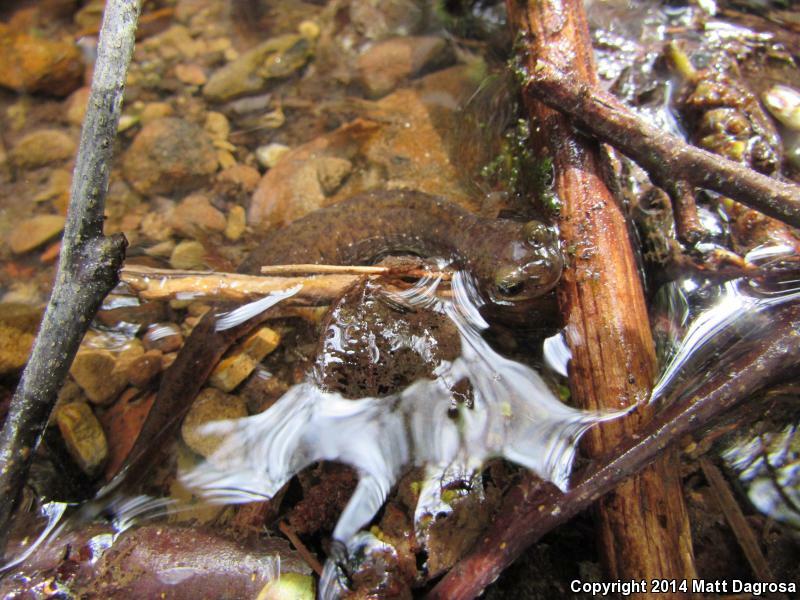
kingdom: Animalia
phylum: Chordata
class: Amphibia
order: Caudata
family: Rhyacotritonidae
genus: Rhyacotriton
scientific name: Rhyacotriton variegatus
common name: Southern torrent salamander
